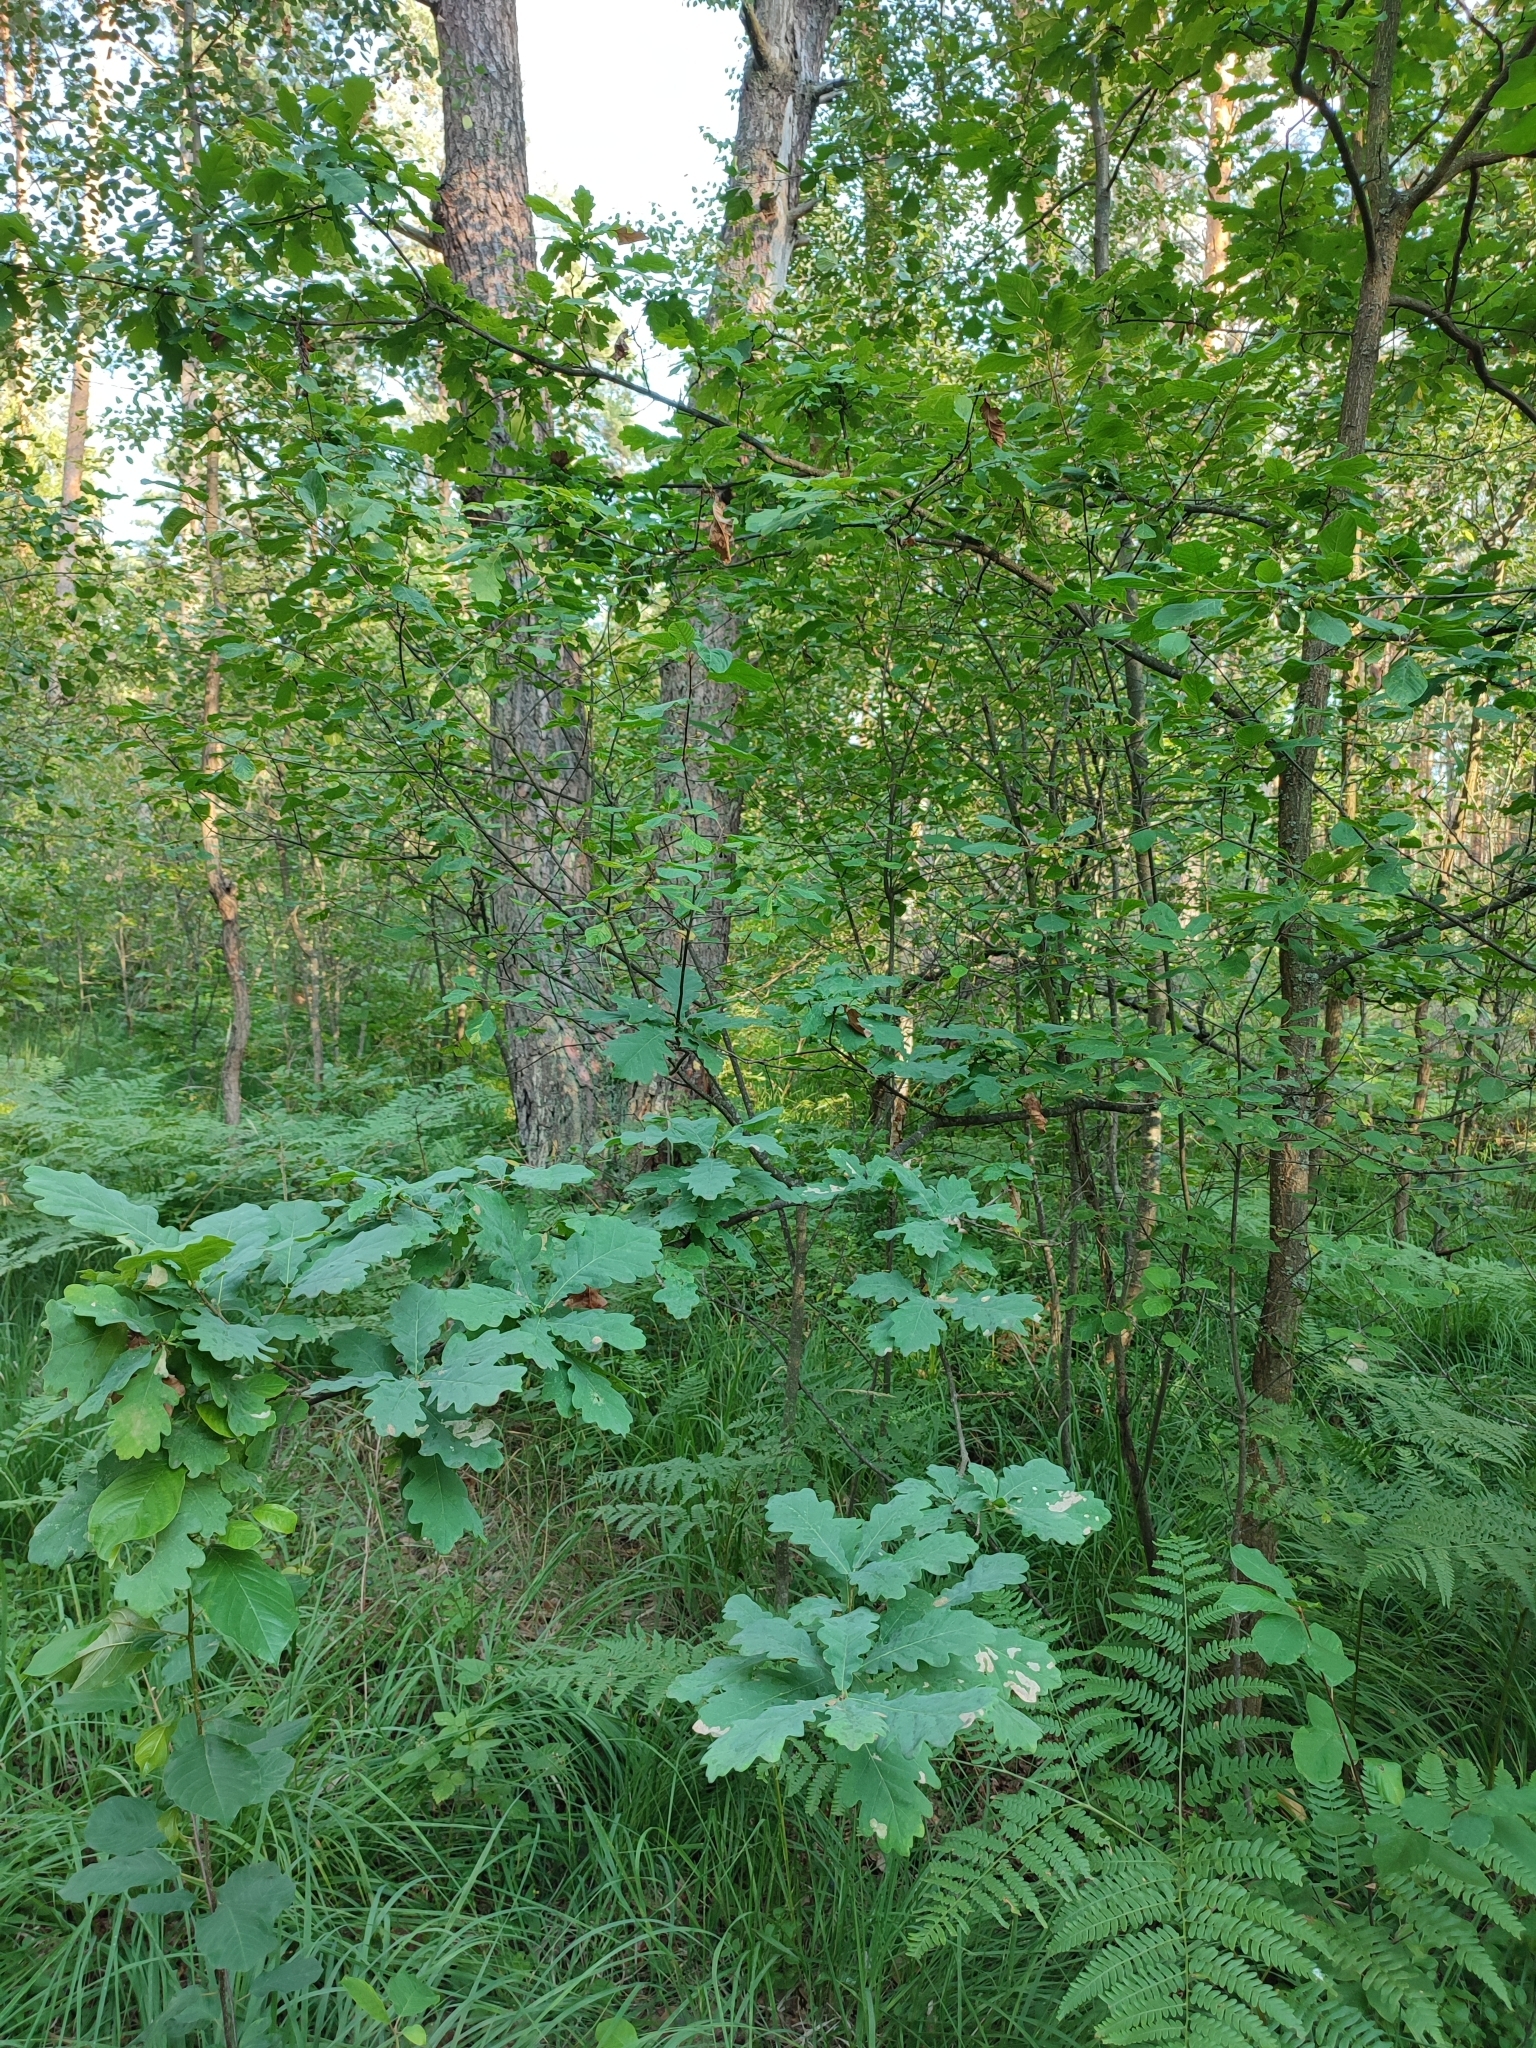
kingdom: Plantae
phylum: Tracheophyta
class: Magnoliopsida
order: Fagales
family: Fagaceae
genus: Quercus
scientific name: Quercus robur
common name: Pedunculate oak
